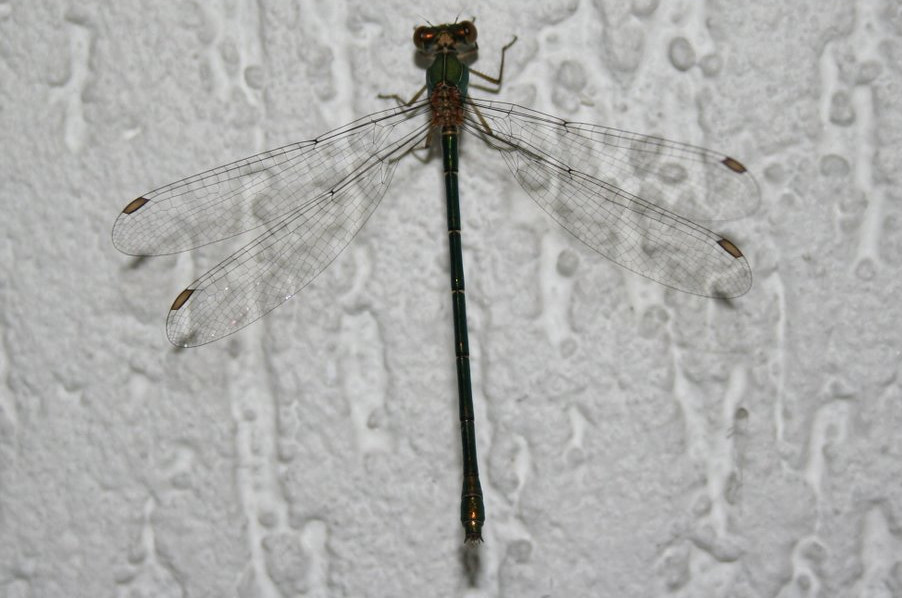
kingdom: Animalia
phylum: Arthropoda
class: Insecta
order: Odonata
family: Lestidae
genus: Chalcolestes
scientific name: Chalcolestes viridis
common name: Green emerald damselfly
